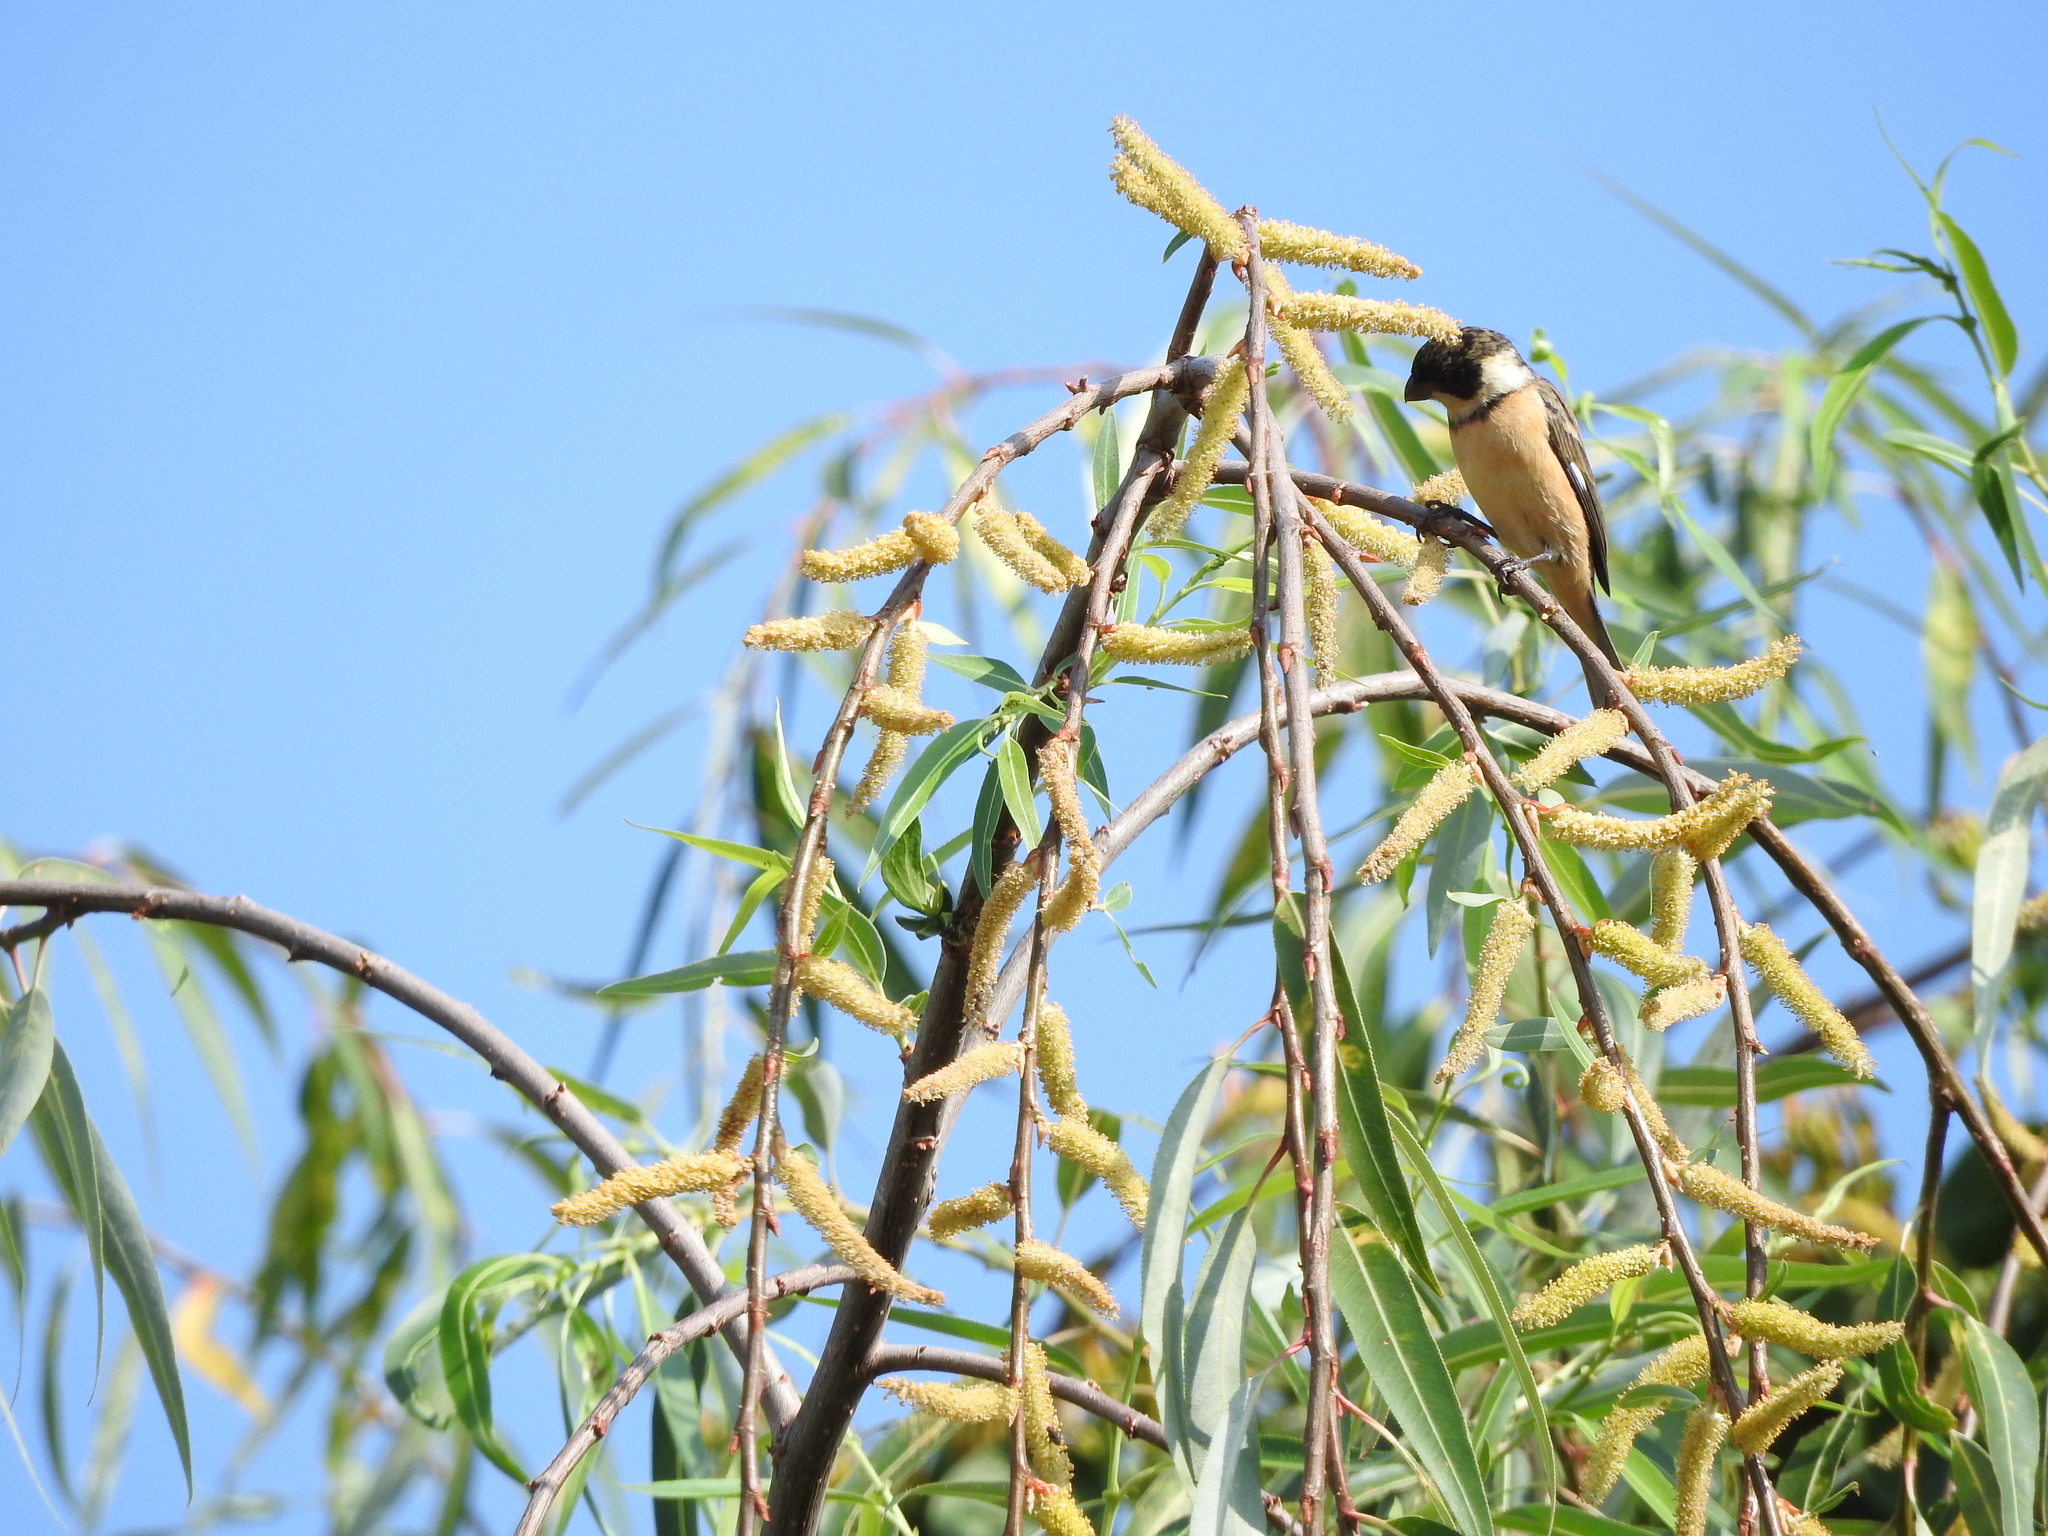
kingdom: Animalia
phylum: Chordata
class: Aves
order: Passeriformes
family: Thraupidae
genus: Sporophila
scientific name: Sporophila torqueola
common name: White-collared seedeater
